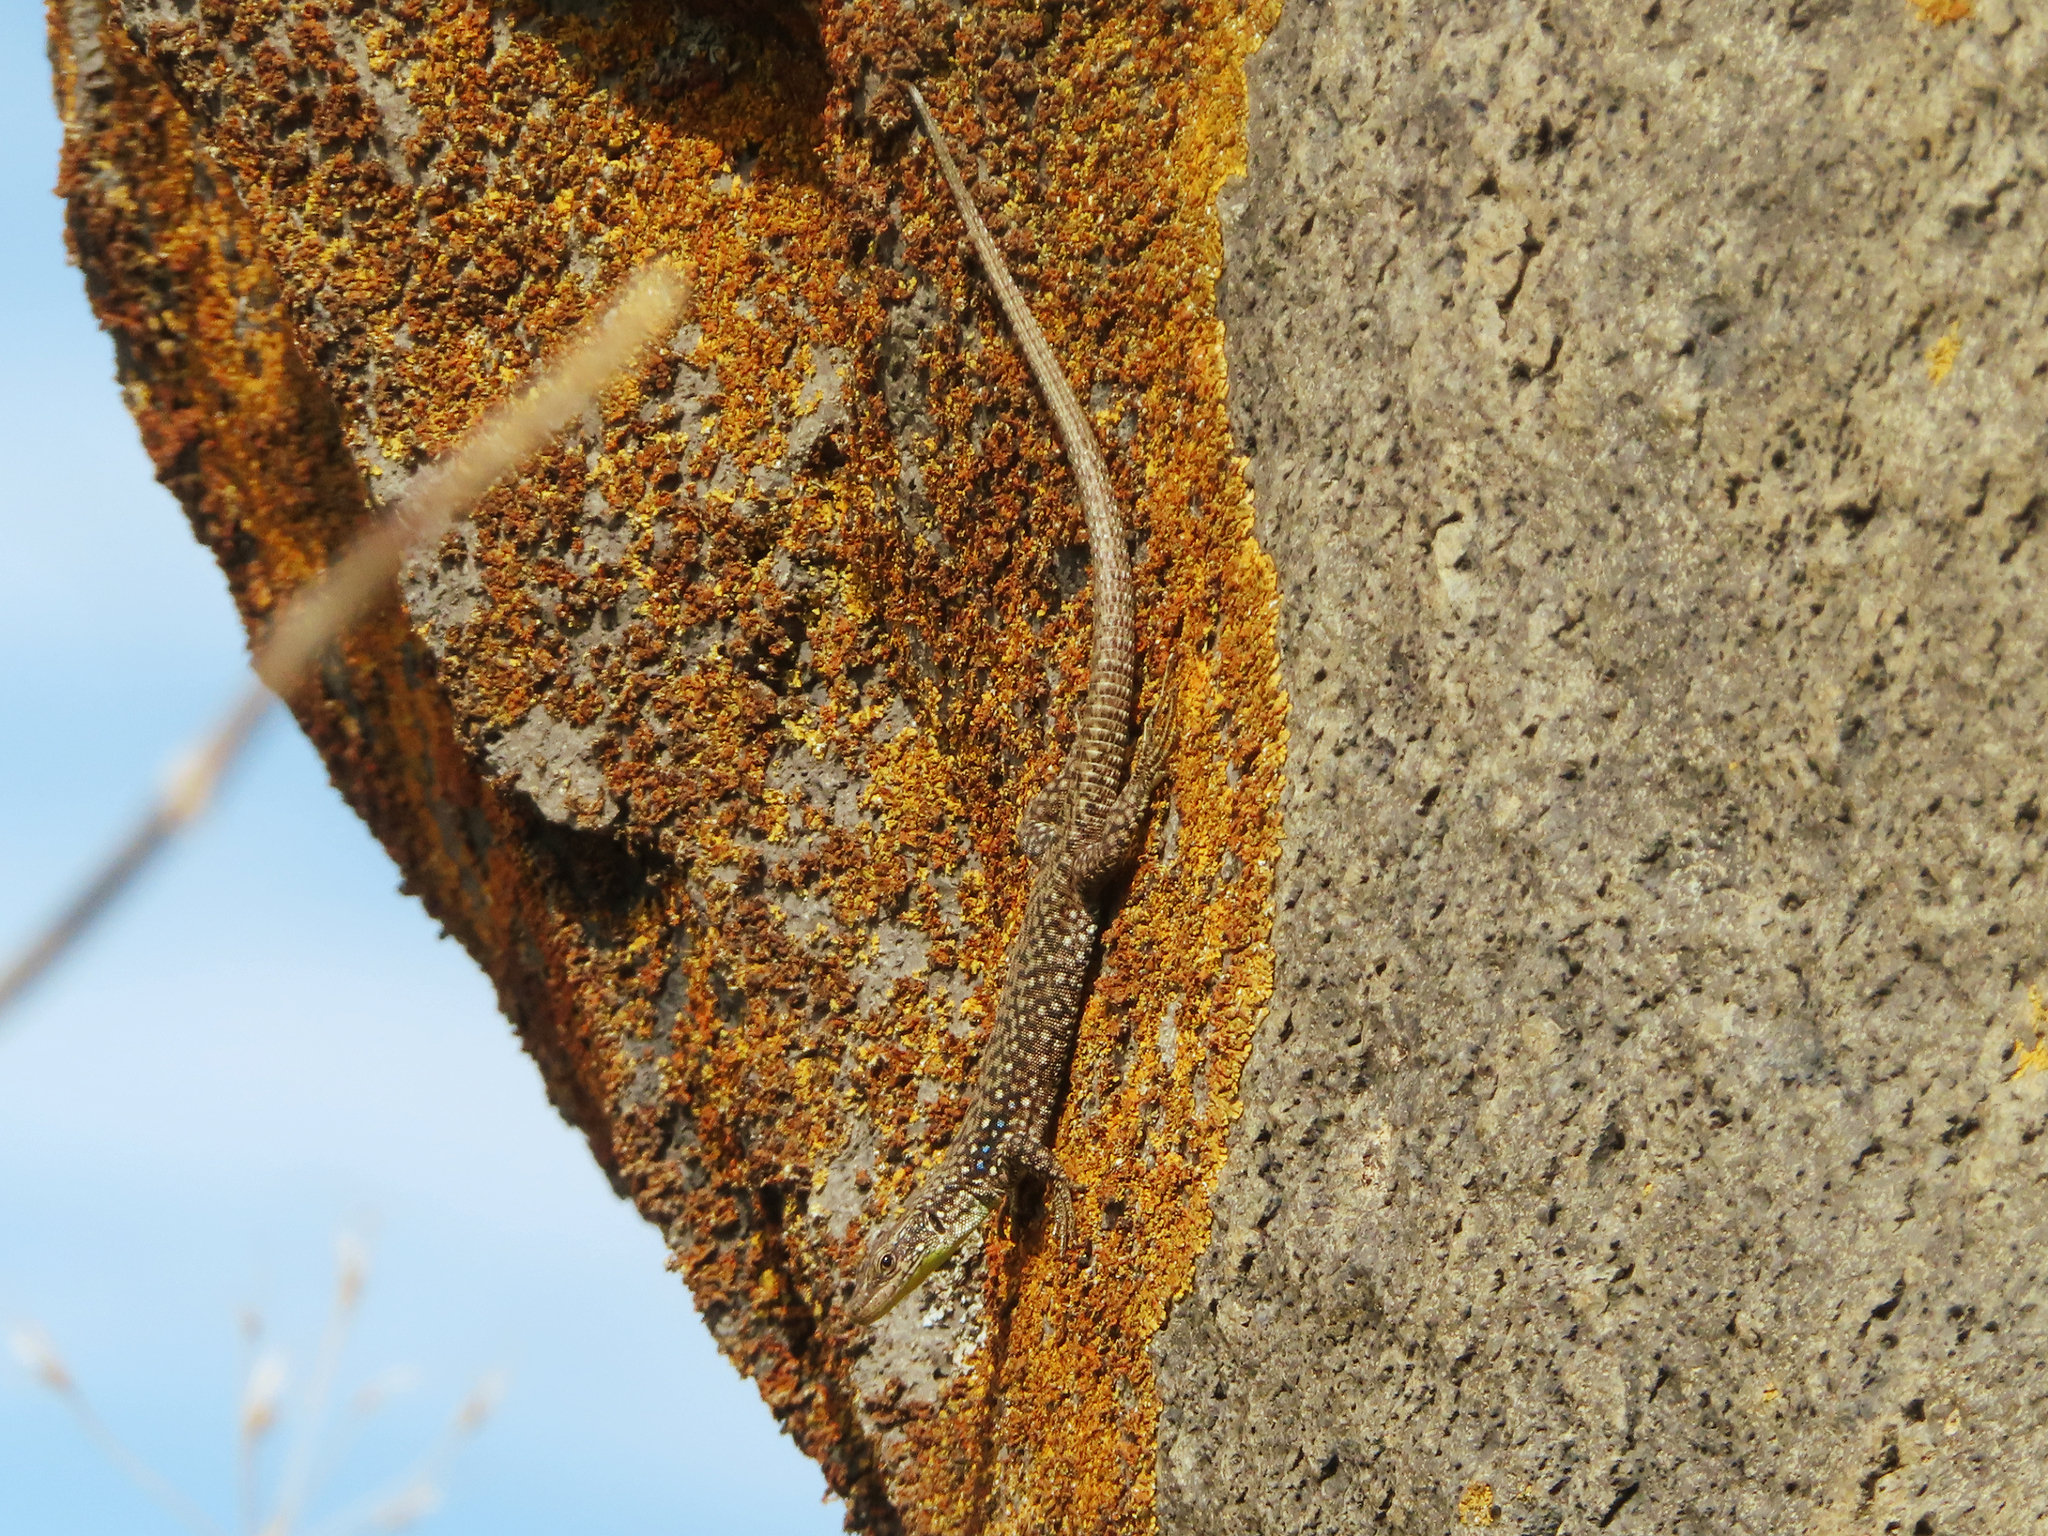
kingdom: Animalia
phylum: Chordata
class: Squamata
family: Lacertidae
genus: Darevskia
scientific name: Darevskia
